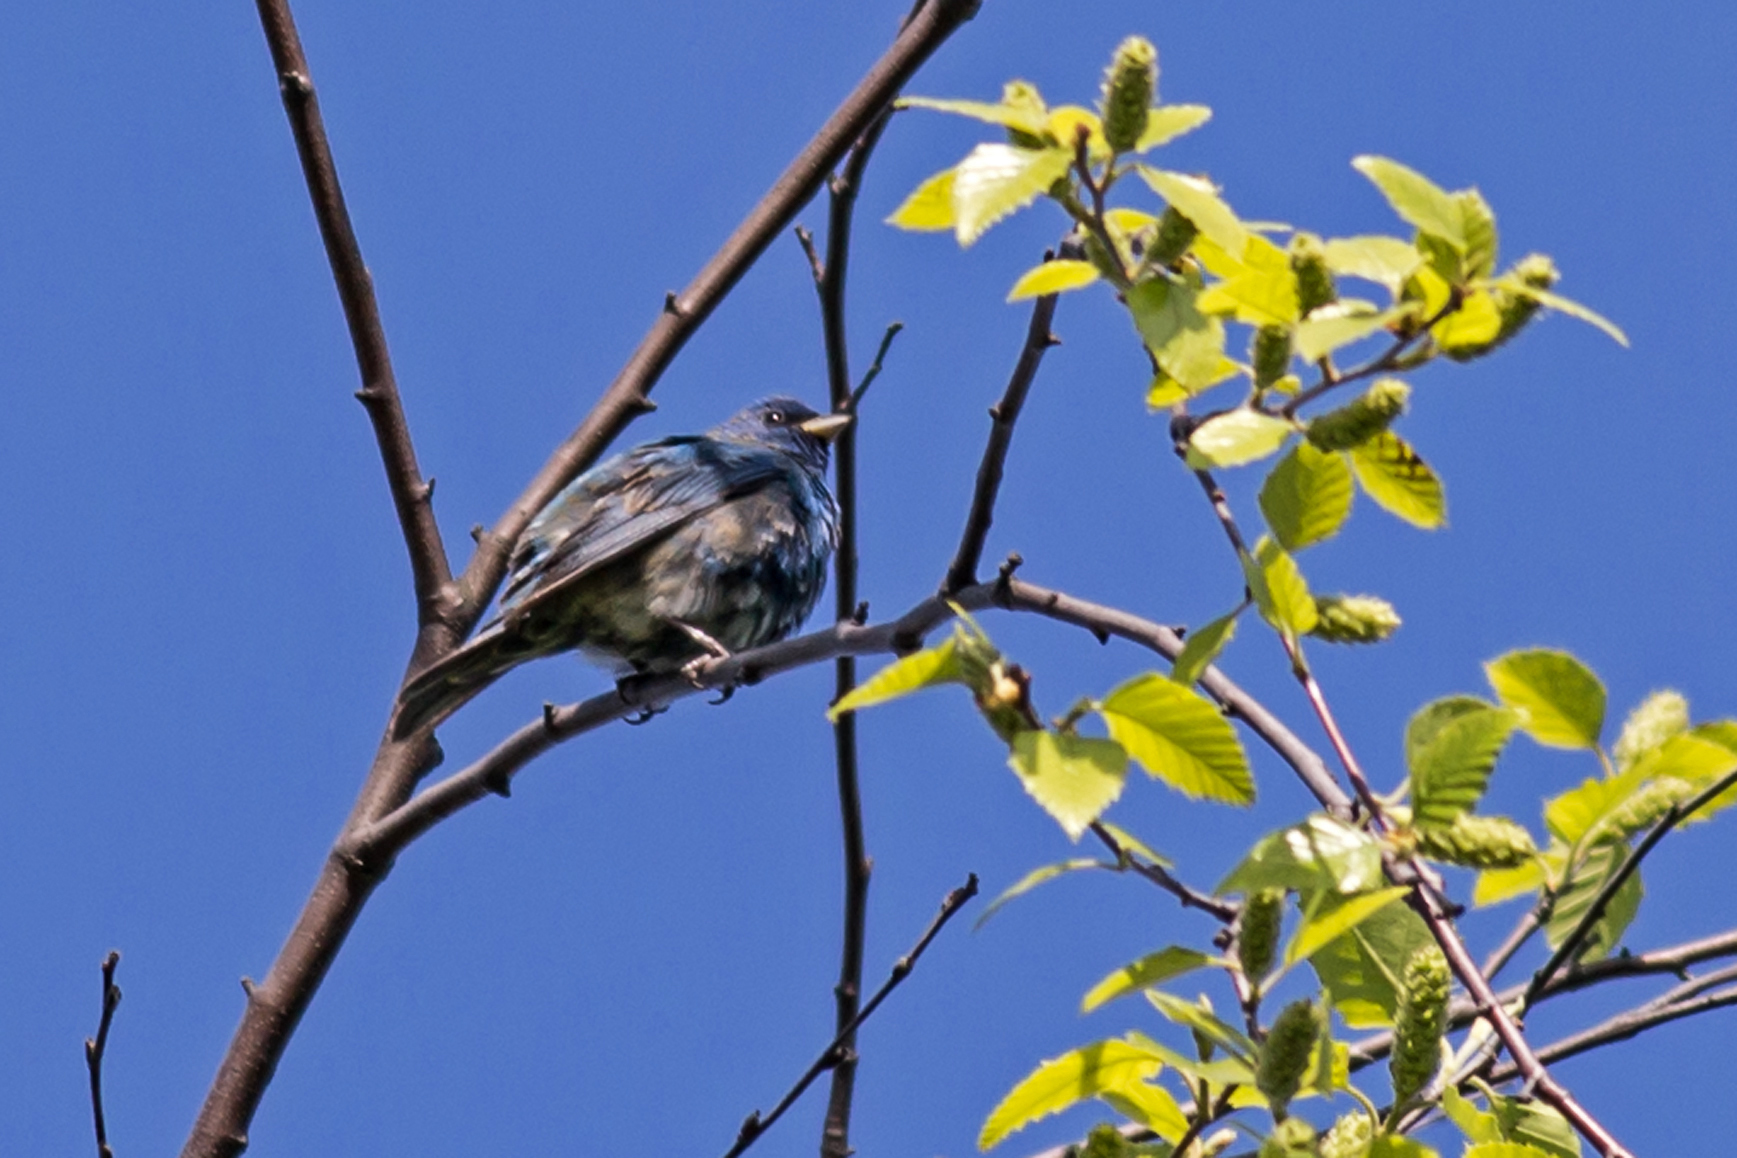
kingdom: Animalia
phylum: Chordata
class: Aves
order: Passeriformes
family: Cardinalidae
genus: Passerina
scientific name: Passerina cyanea
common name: Indigo bunting
